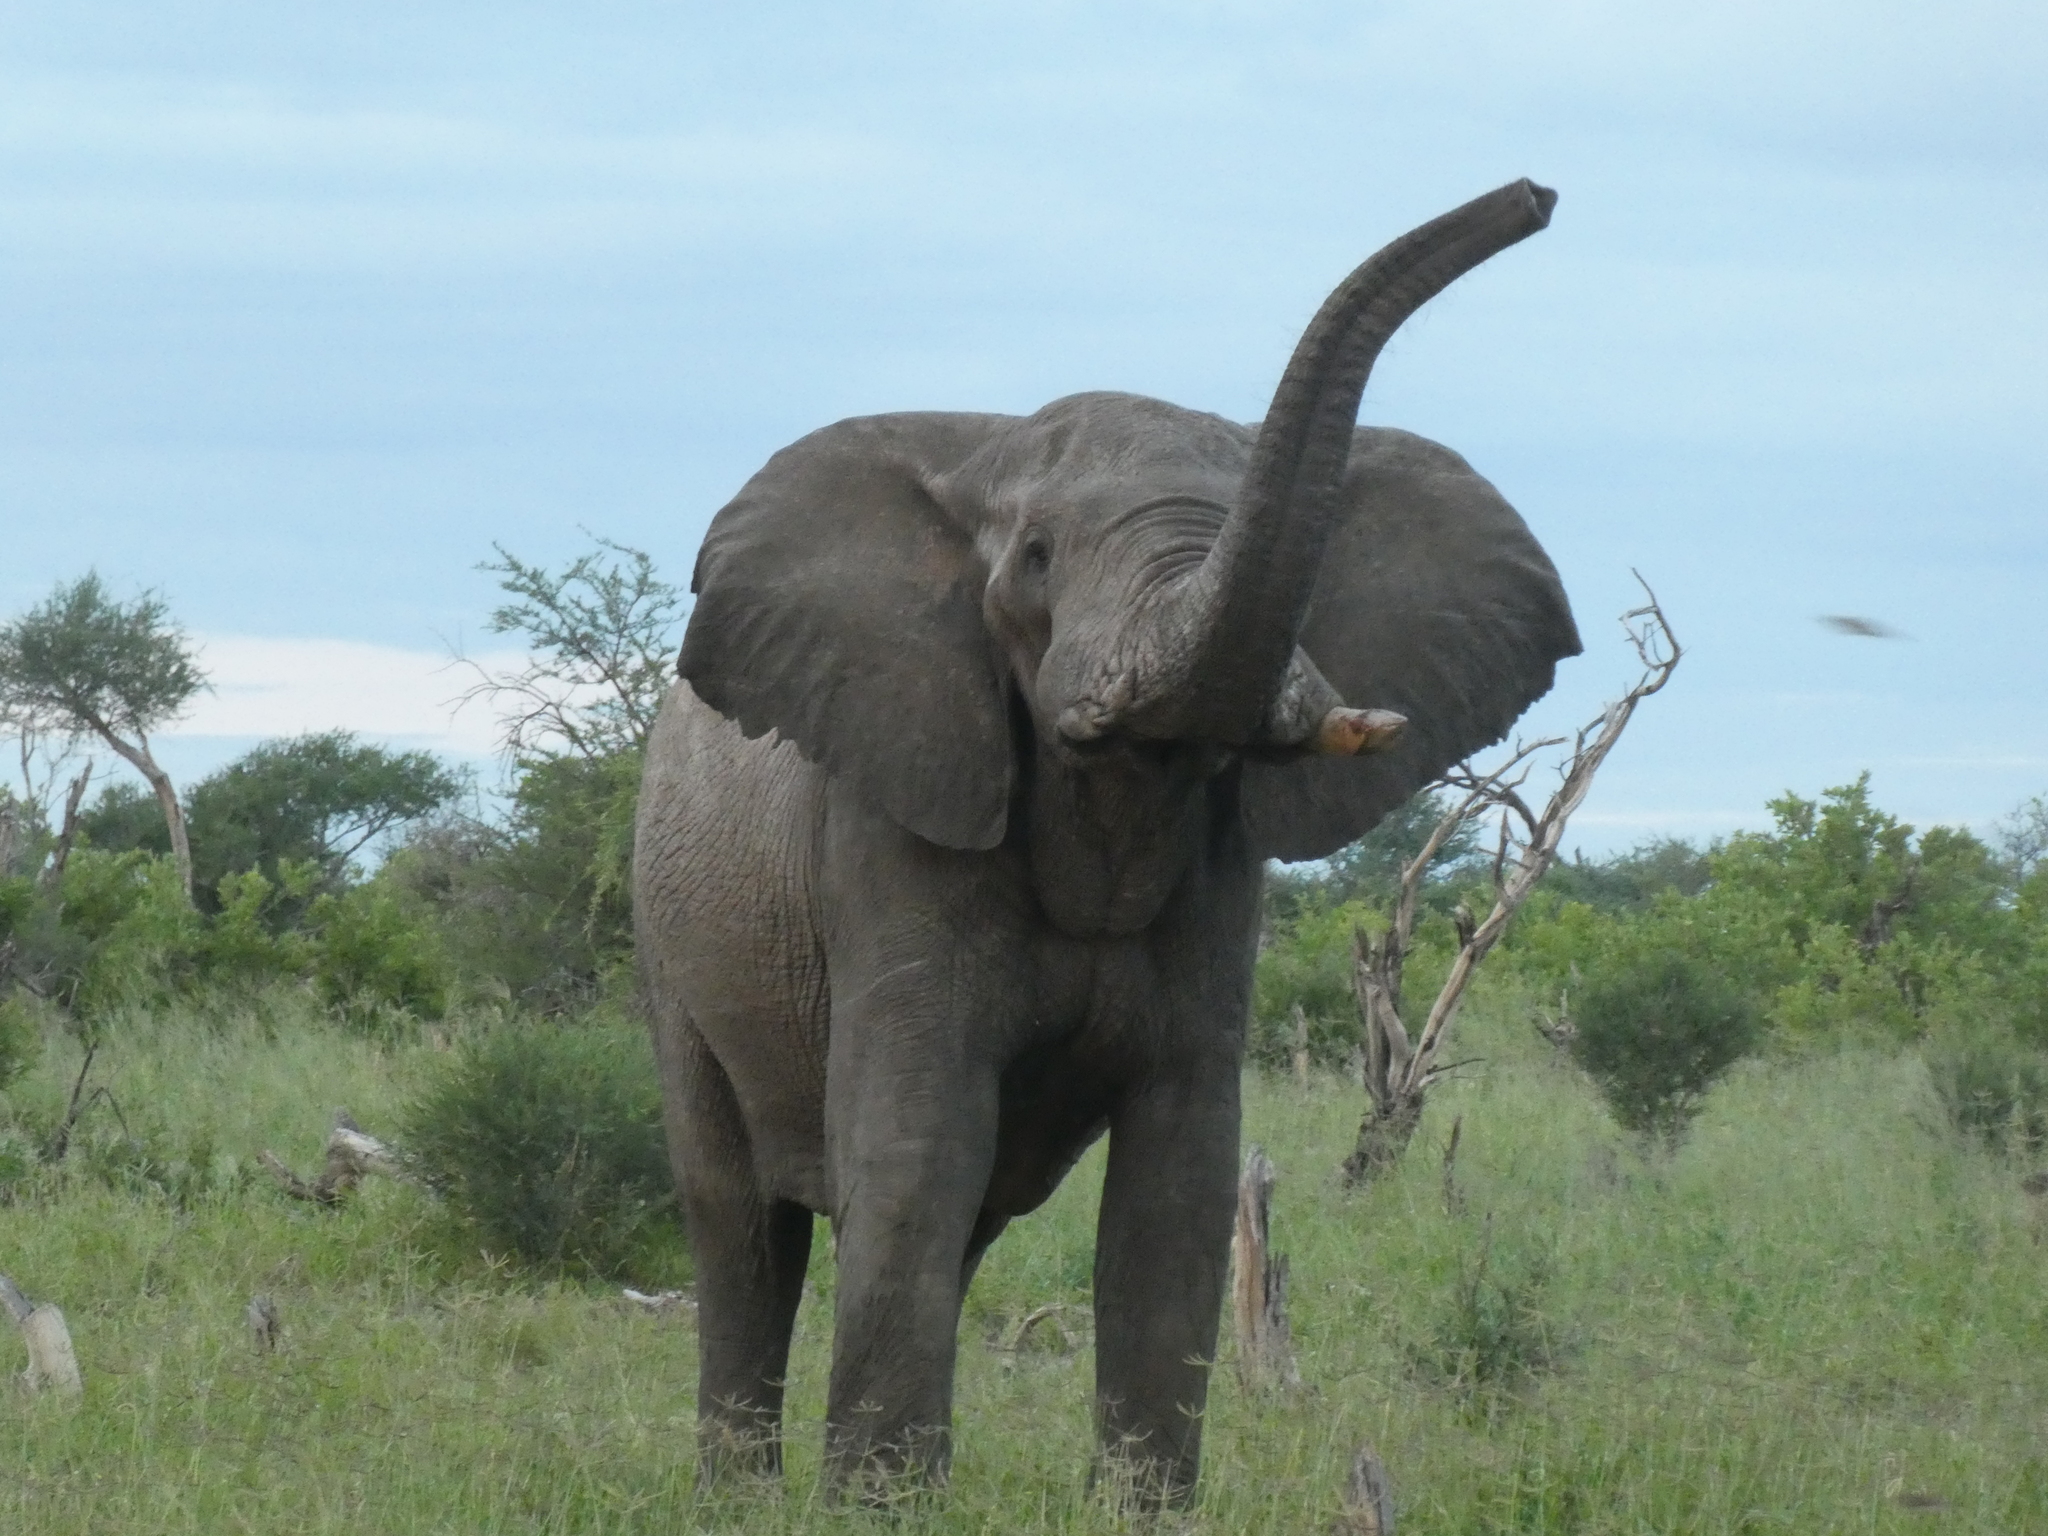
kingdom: Animalia
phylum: Chordata
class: Mammalia
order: Proboscidea
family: Elephantidae
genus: Loxodonta
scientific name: Loxodonta africana
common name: African elephant
